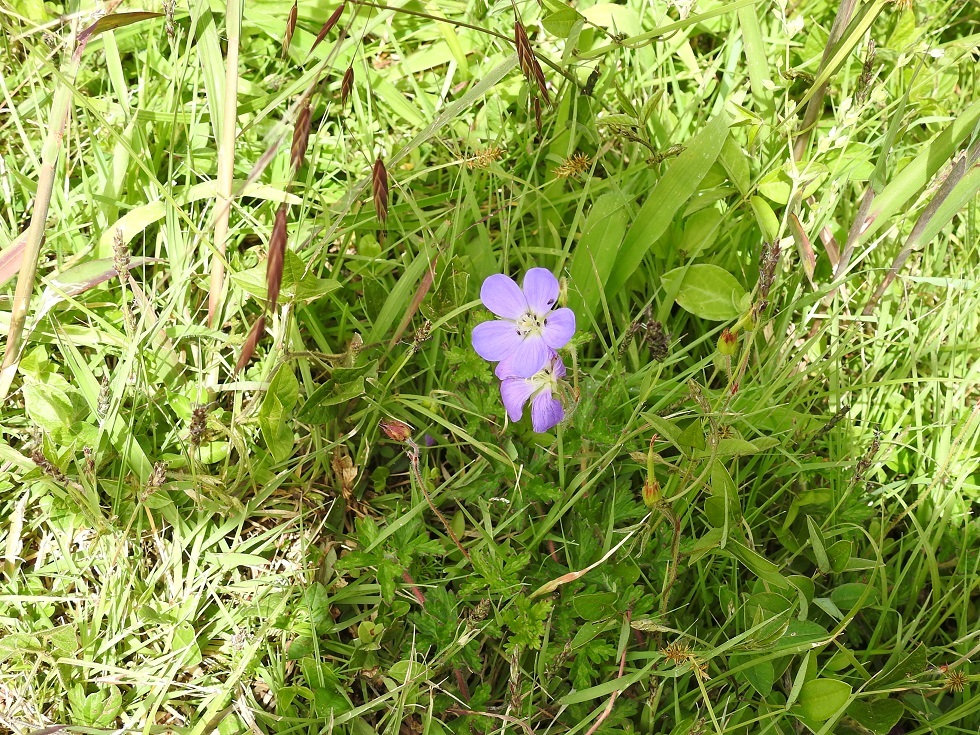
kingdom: Plantae
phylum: Tracheophyta
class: Magnoliopsida
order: Geraniales
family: Geraniaceae
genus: Geranium
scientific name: Geranium goldmanii
